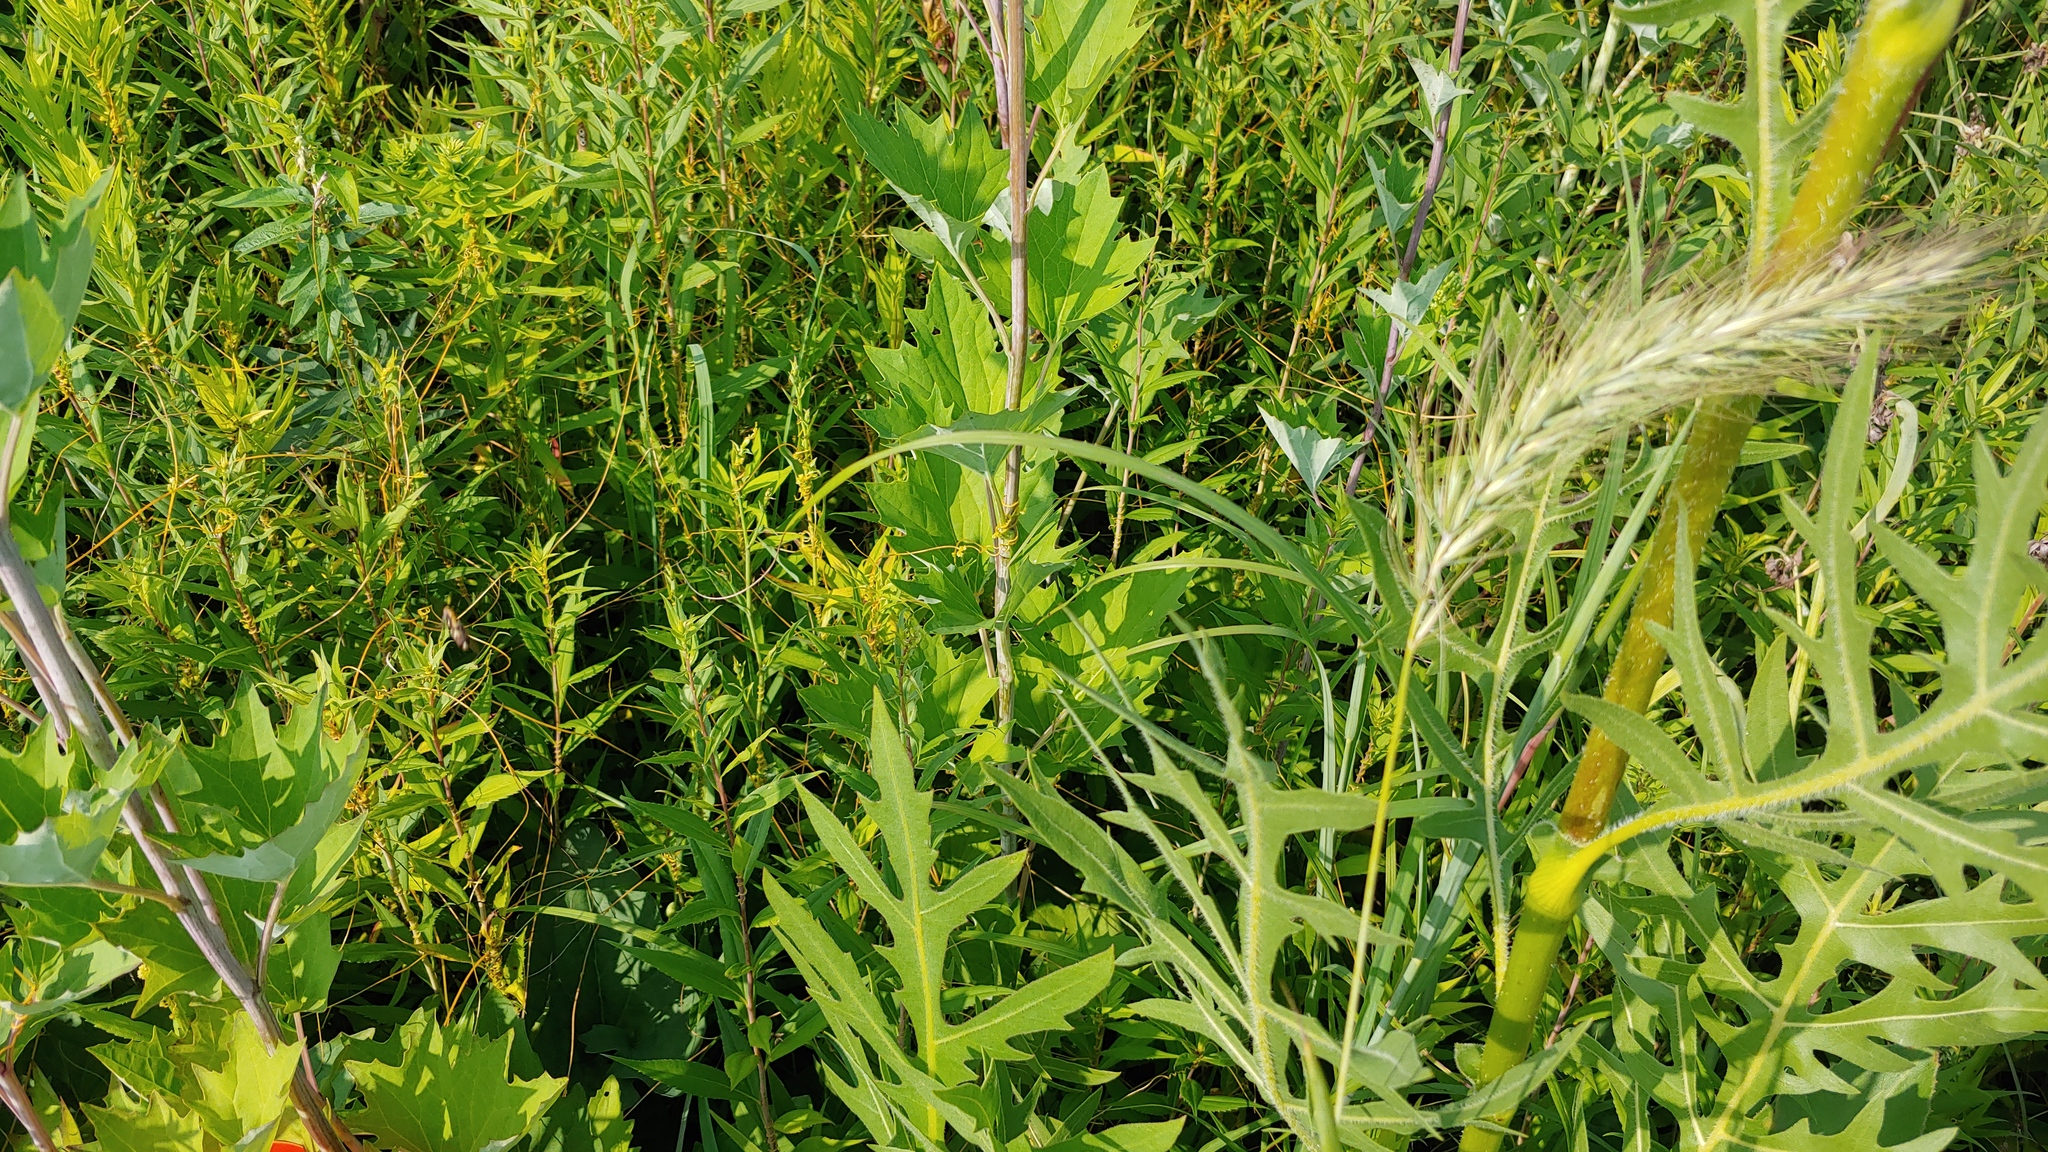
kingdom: Plantae
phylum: Tracheophyta
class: Magnoliopsida
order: Asterales
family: Asteraceae
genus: Arnoglossum
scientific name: Arnoglossum atriplicifolium
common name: Pale indian-plantain
